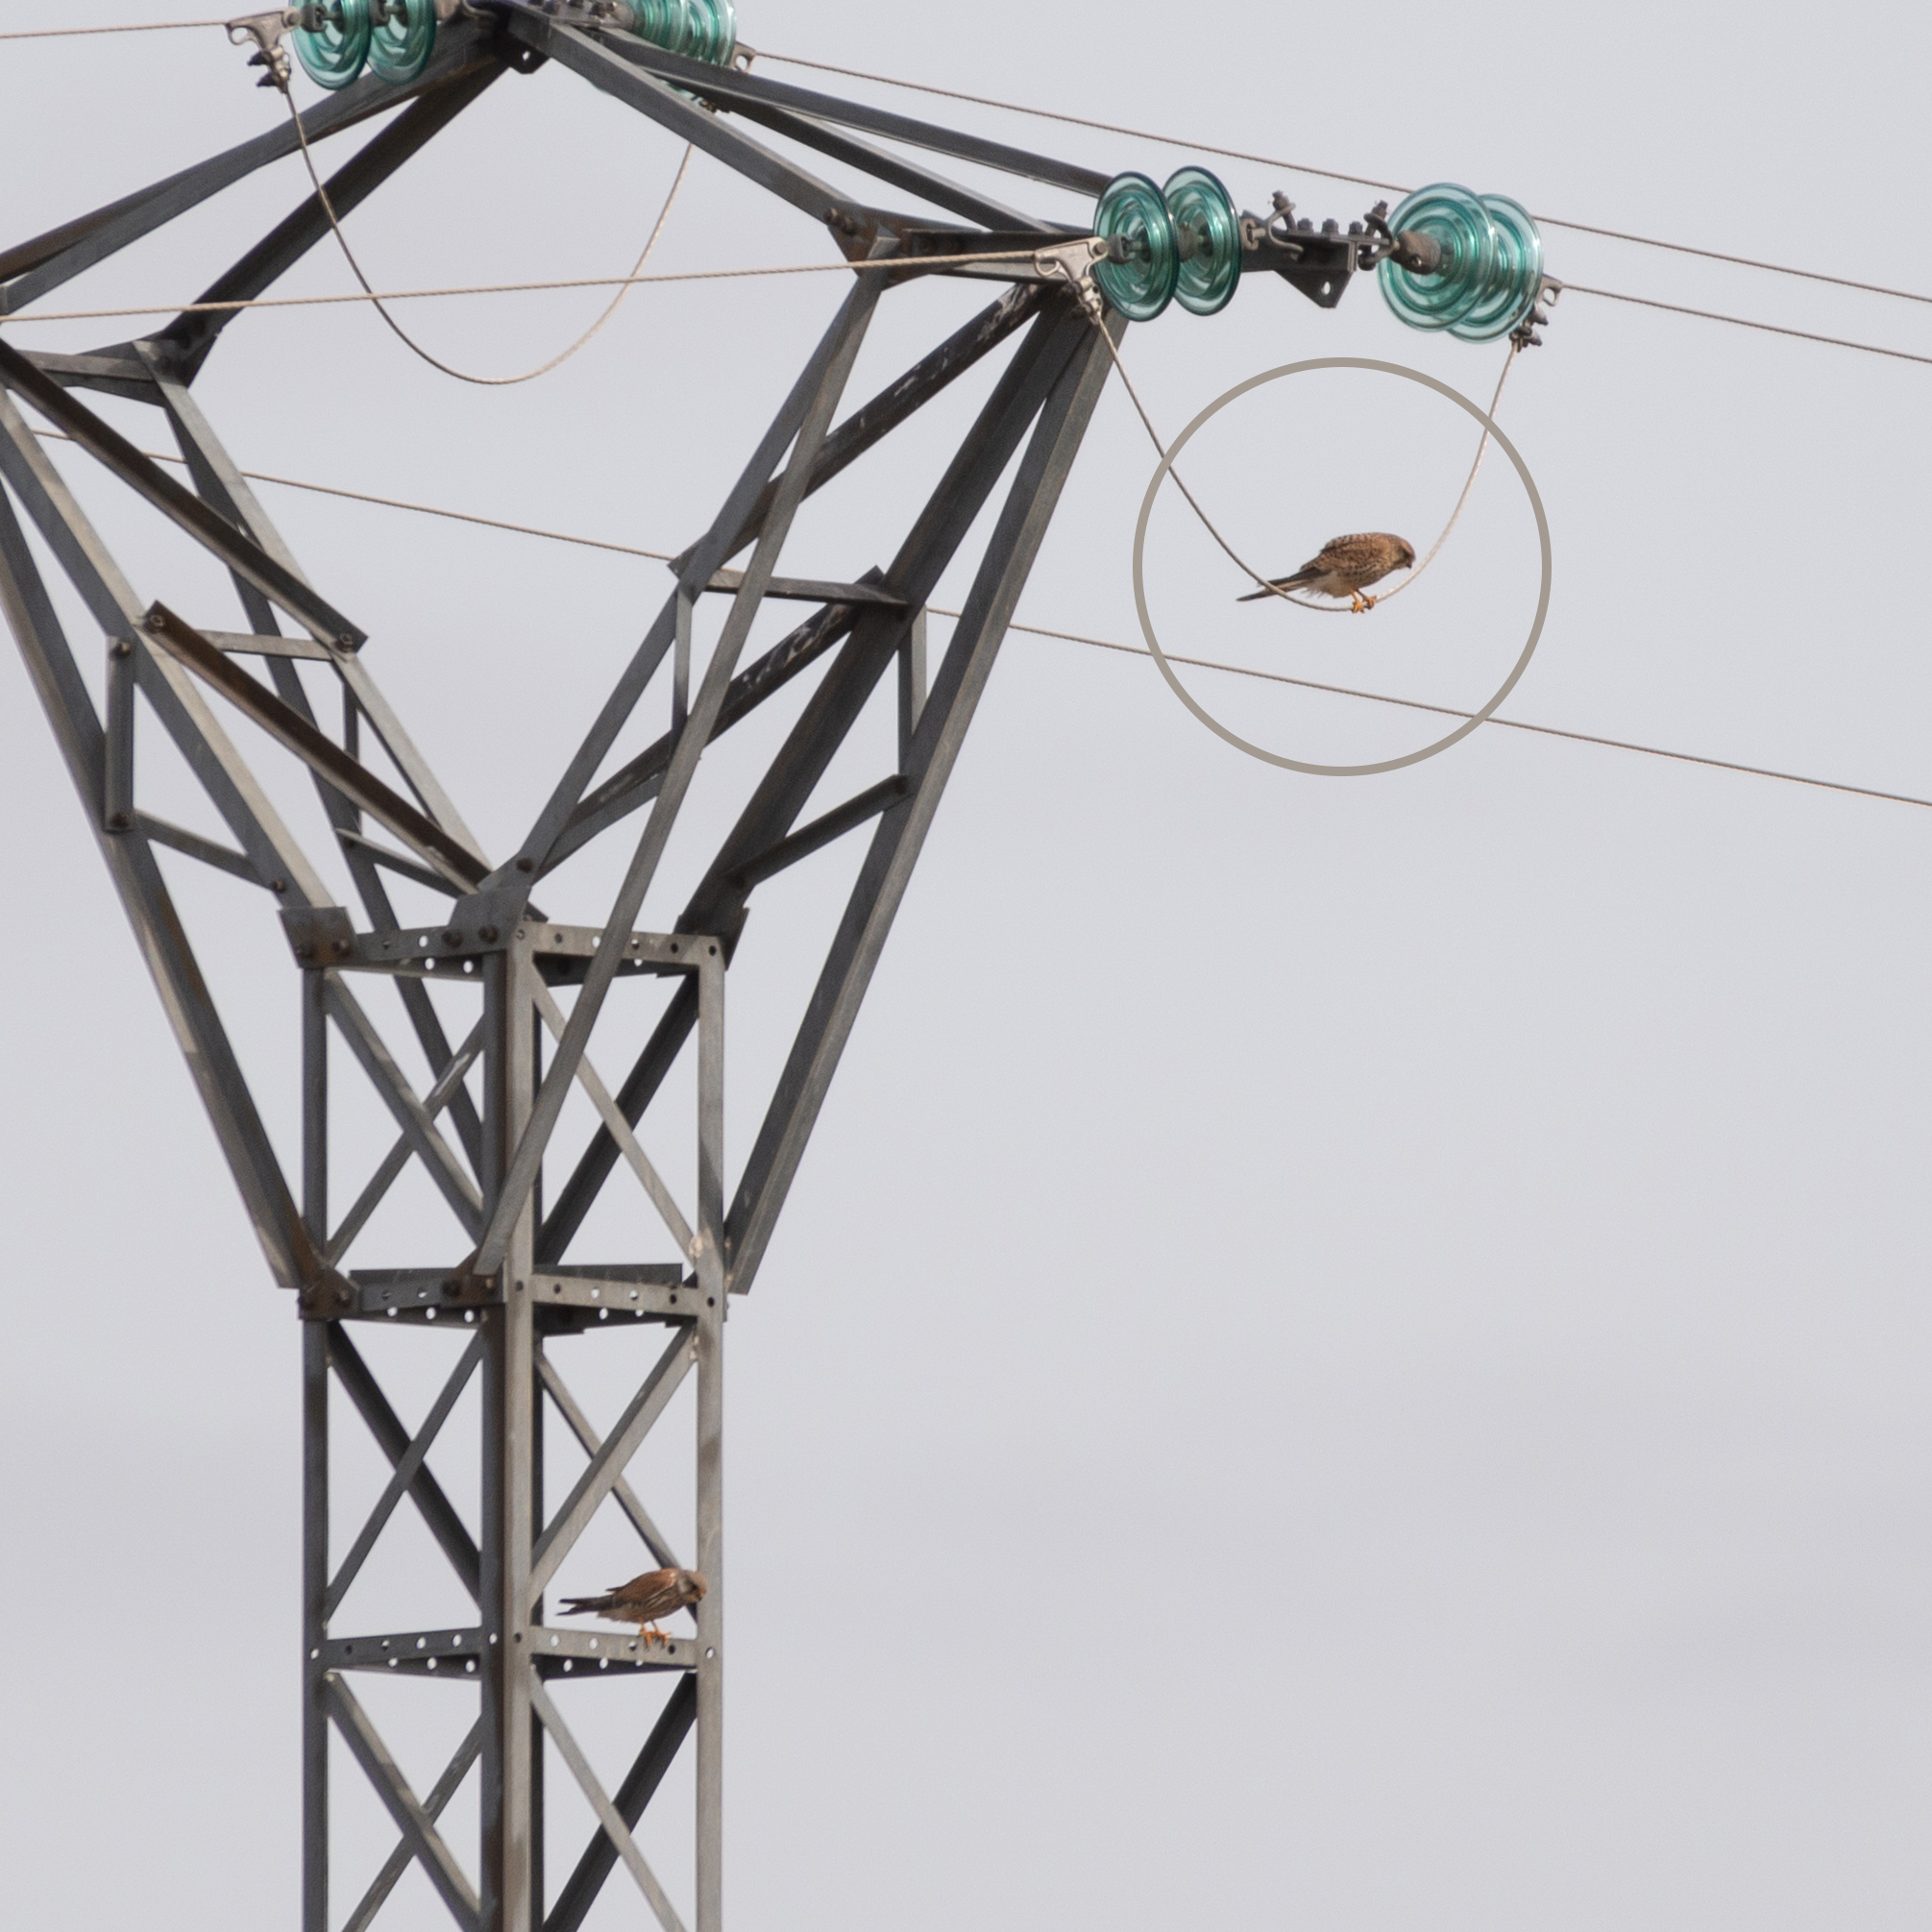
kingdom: Animalia
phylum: Chordata
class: Aves
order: Falconiformes
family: Falconidae
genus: Falco
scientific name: Falco tinnunculus
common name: Common kestrel
